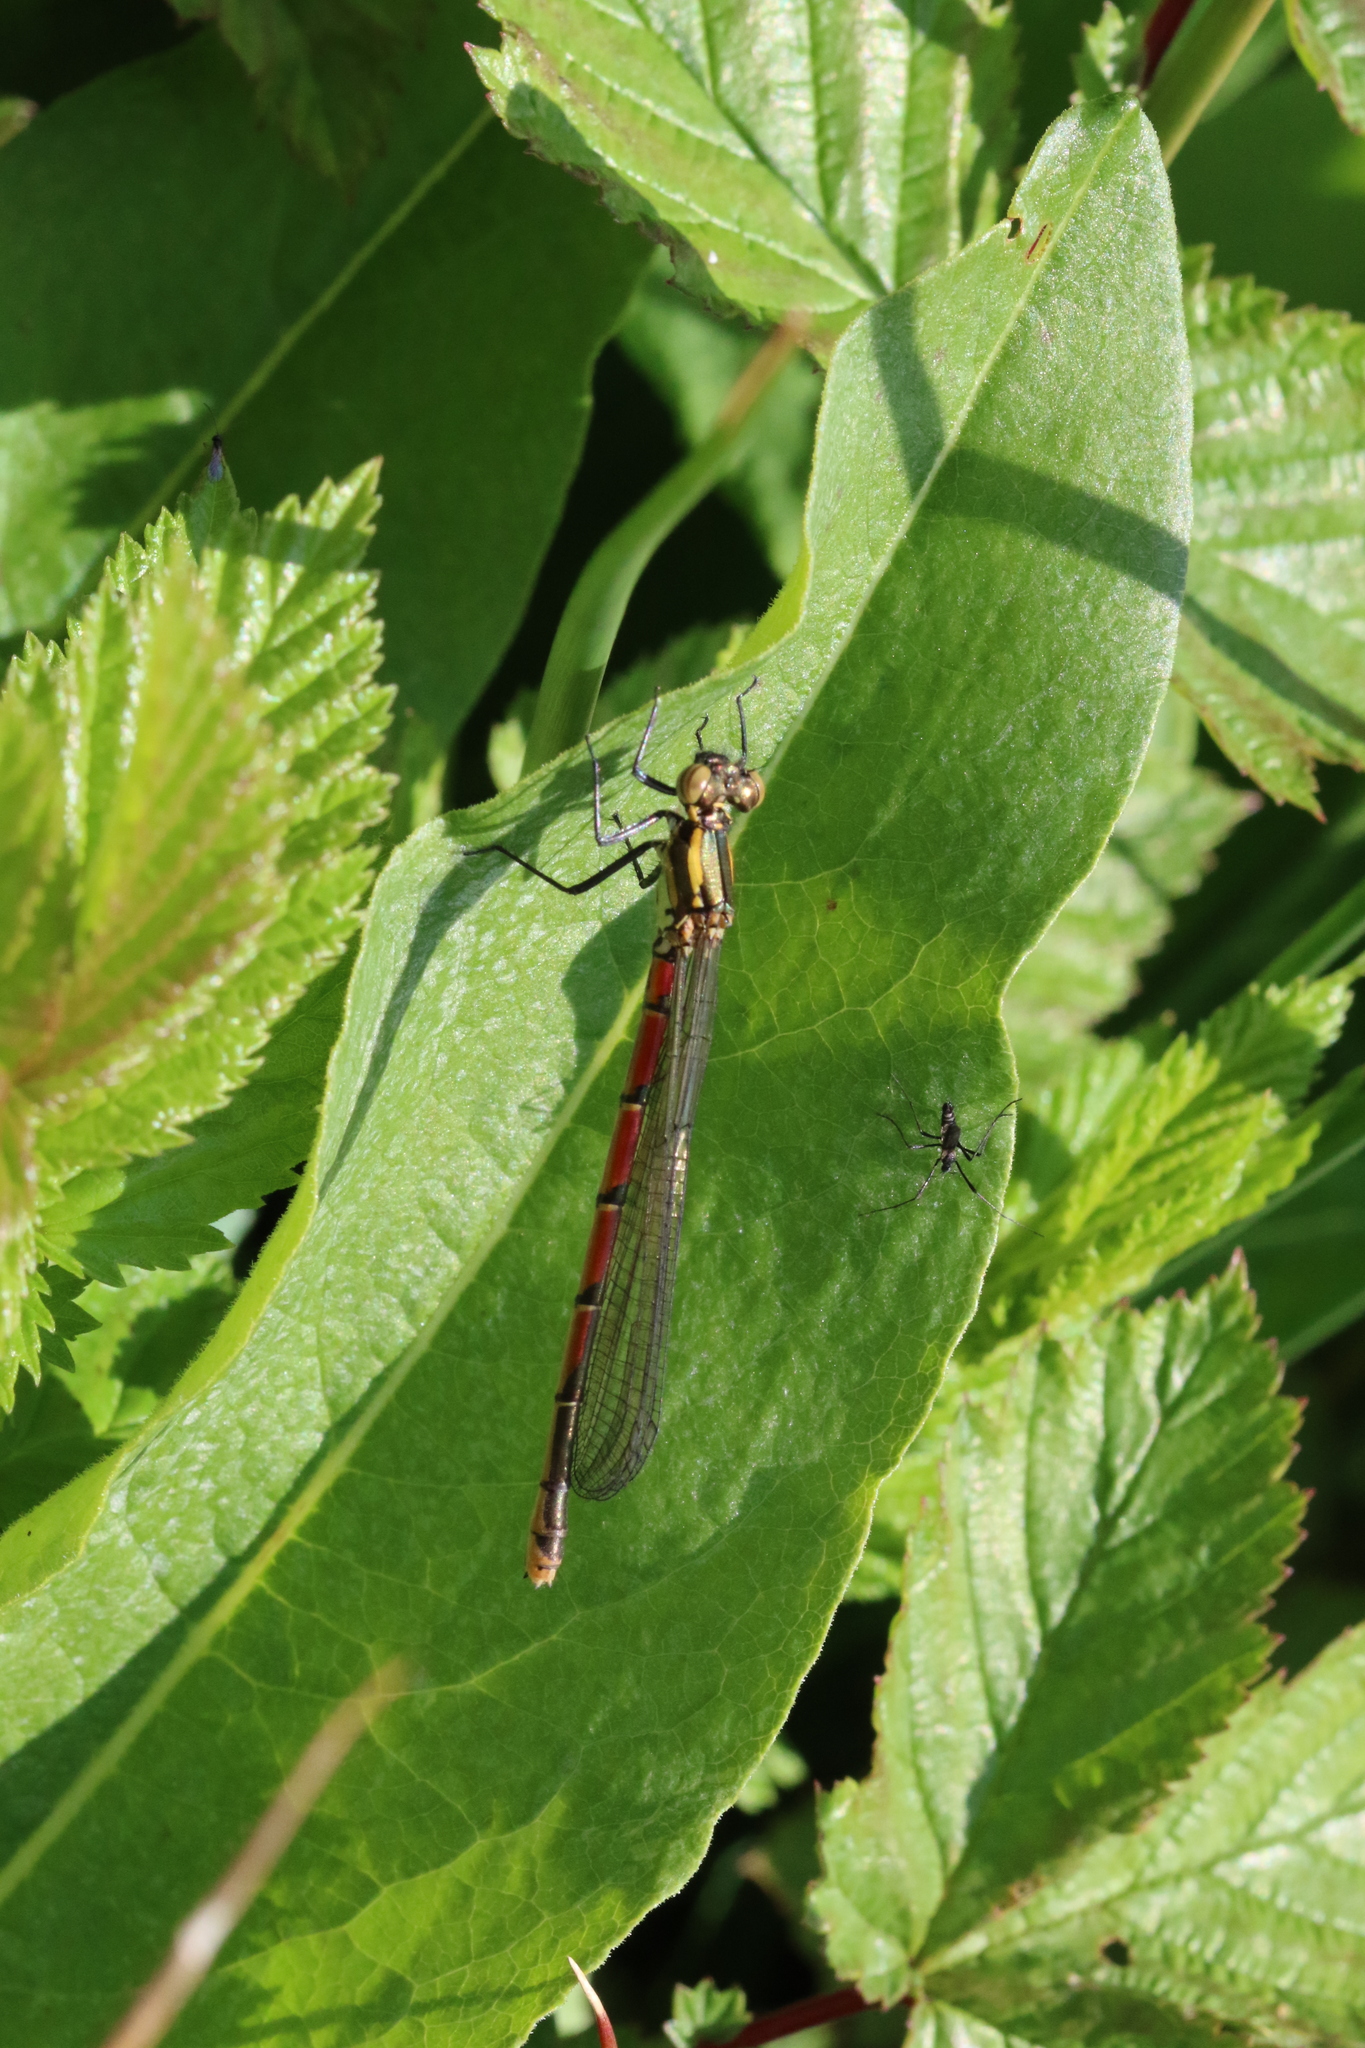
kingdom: Animalia
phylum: Arthropoda
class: Insecta
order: Odonata
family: Coenagrionidae
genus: Pyrrhosoma
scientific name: Pyrrhosoma nymphula
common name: Large red damsel
